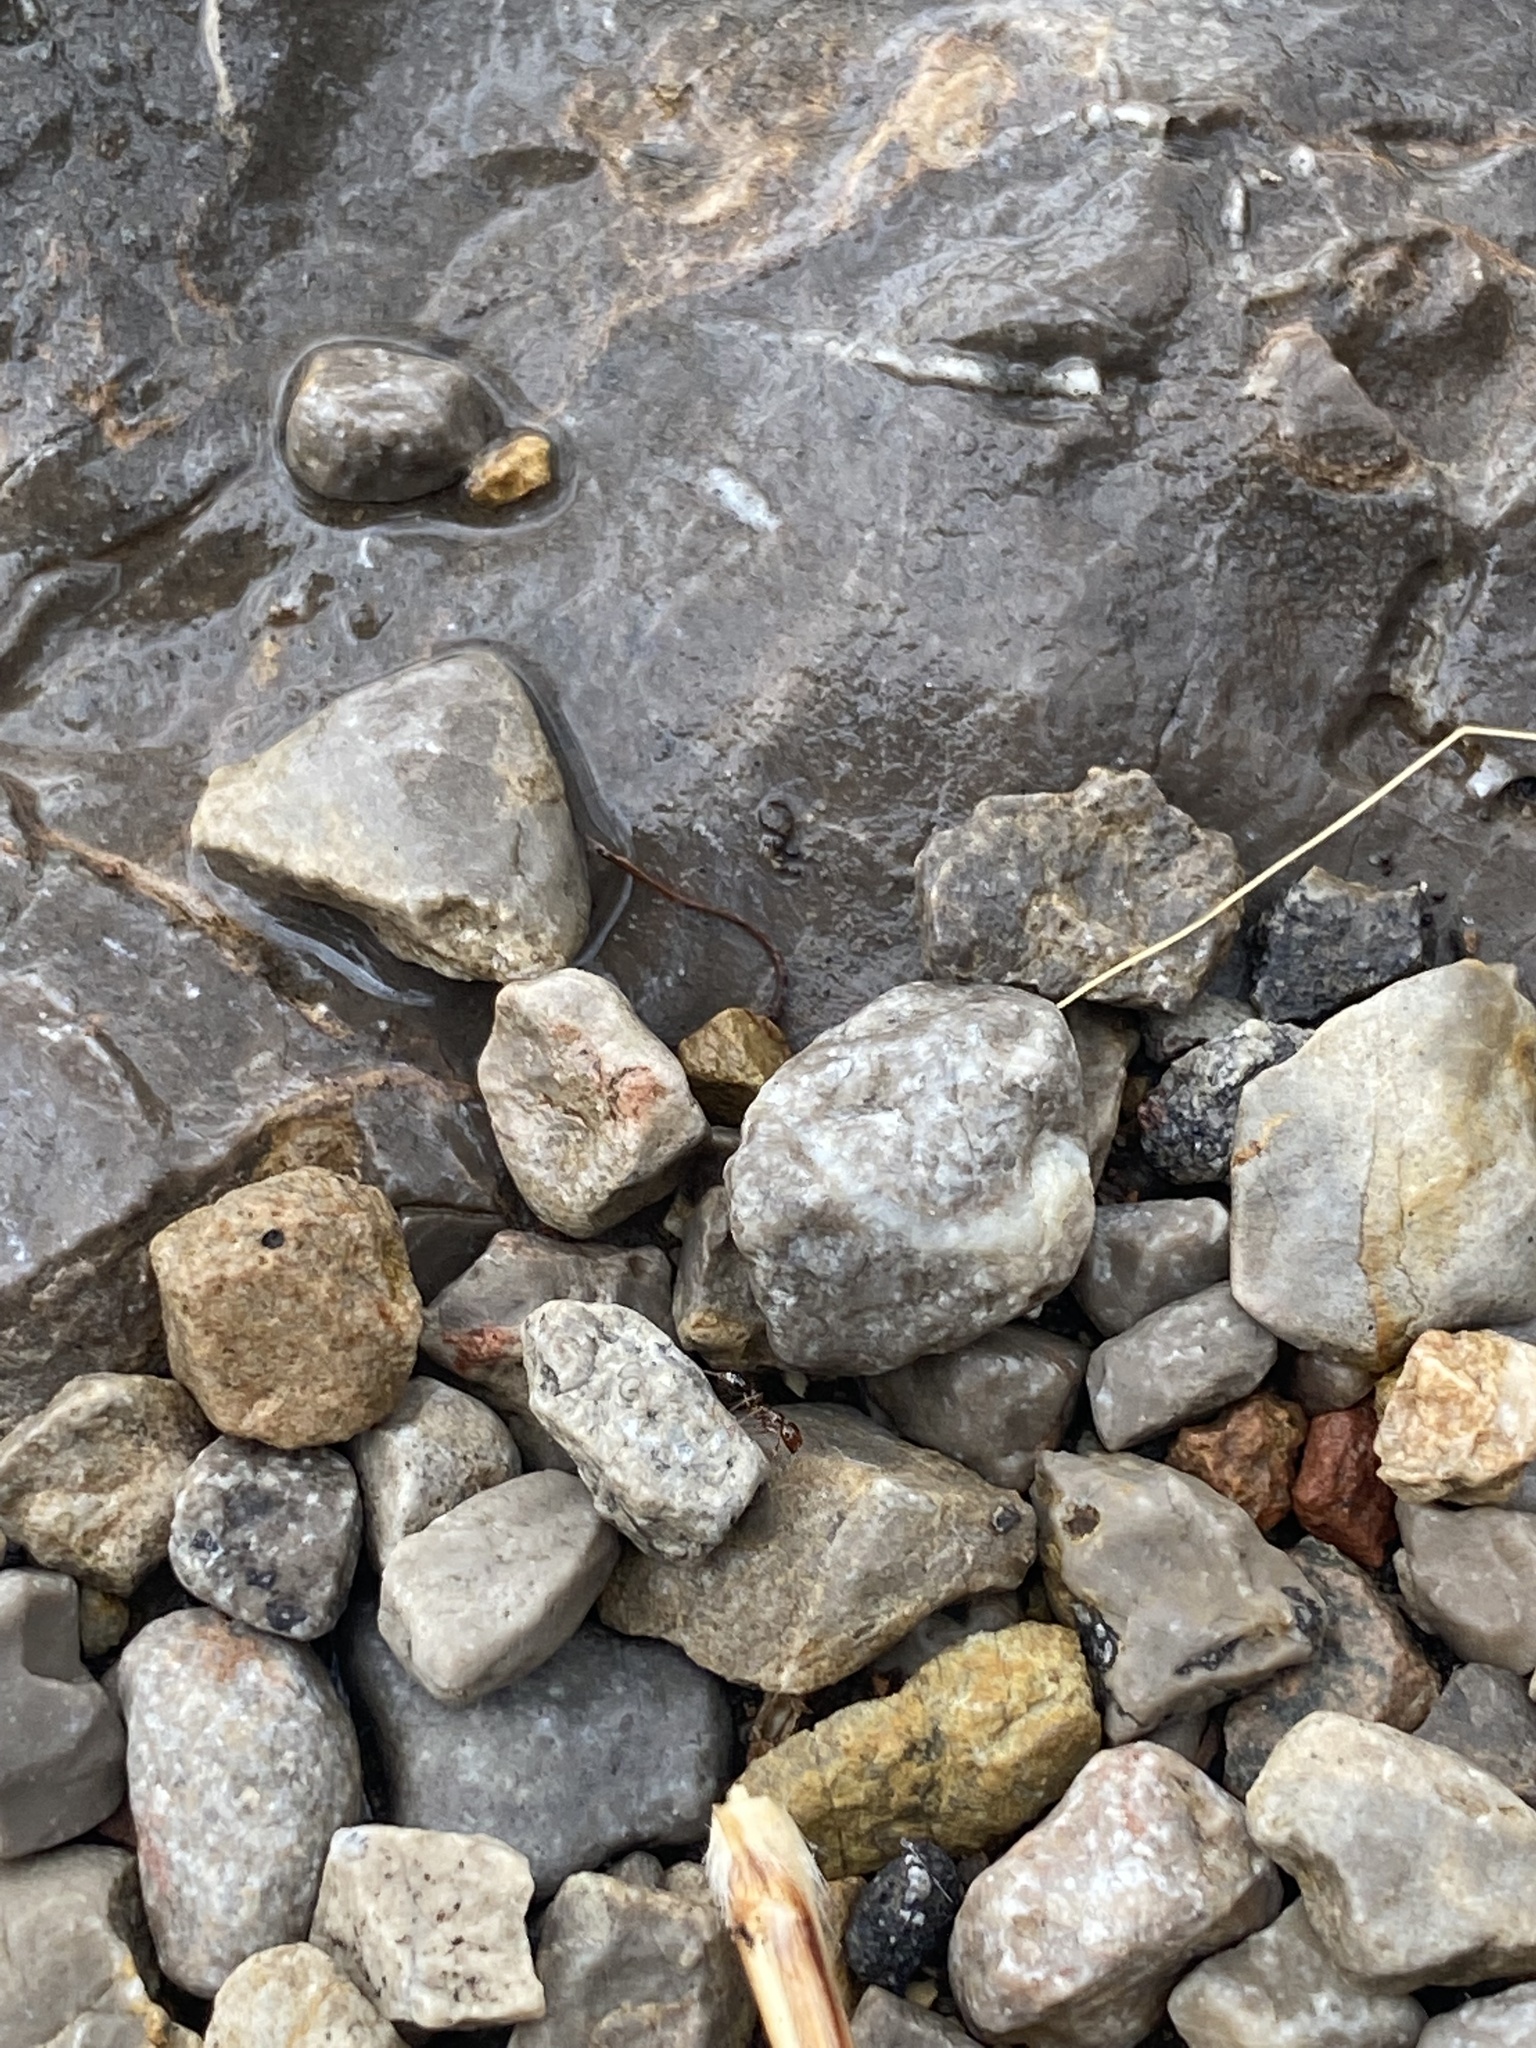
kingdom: Animalia
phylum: Arthropoda
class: Insecta
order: Hymenoptera
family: Formicidae
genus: Solenopsis
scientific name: Solenopsis invicta
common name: Red imported fire ant
